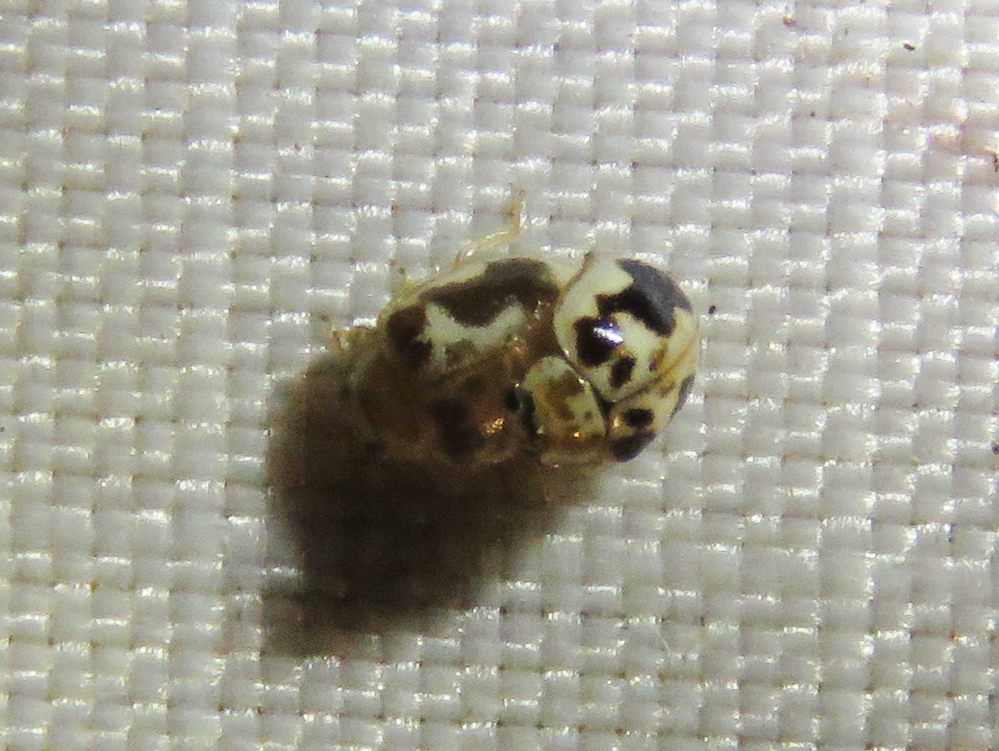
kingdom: Animalia
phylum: Arthropoda
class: Insecta
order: Coleoptera
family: Coccinellidae
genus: Psyllobora
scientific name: Psyllobora renifer
